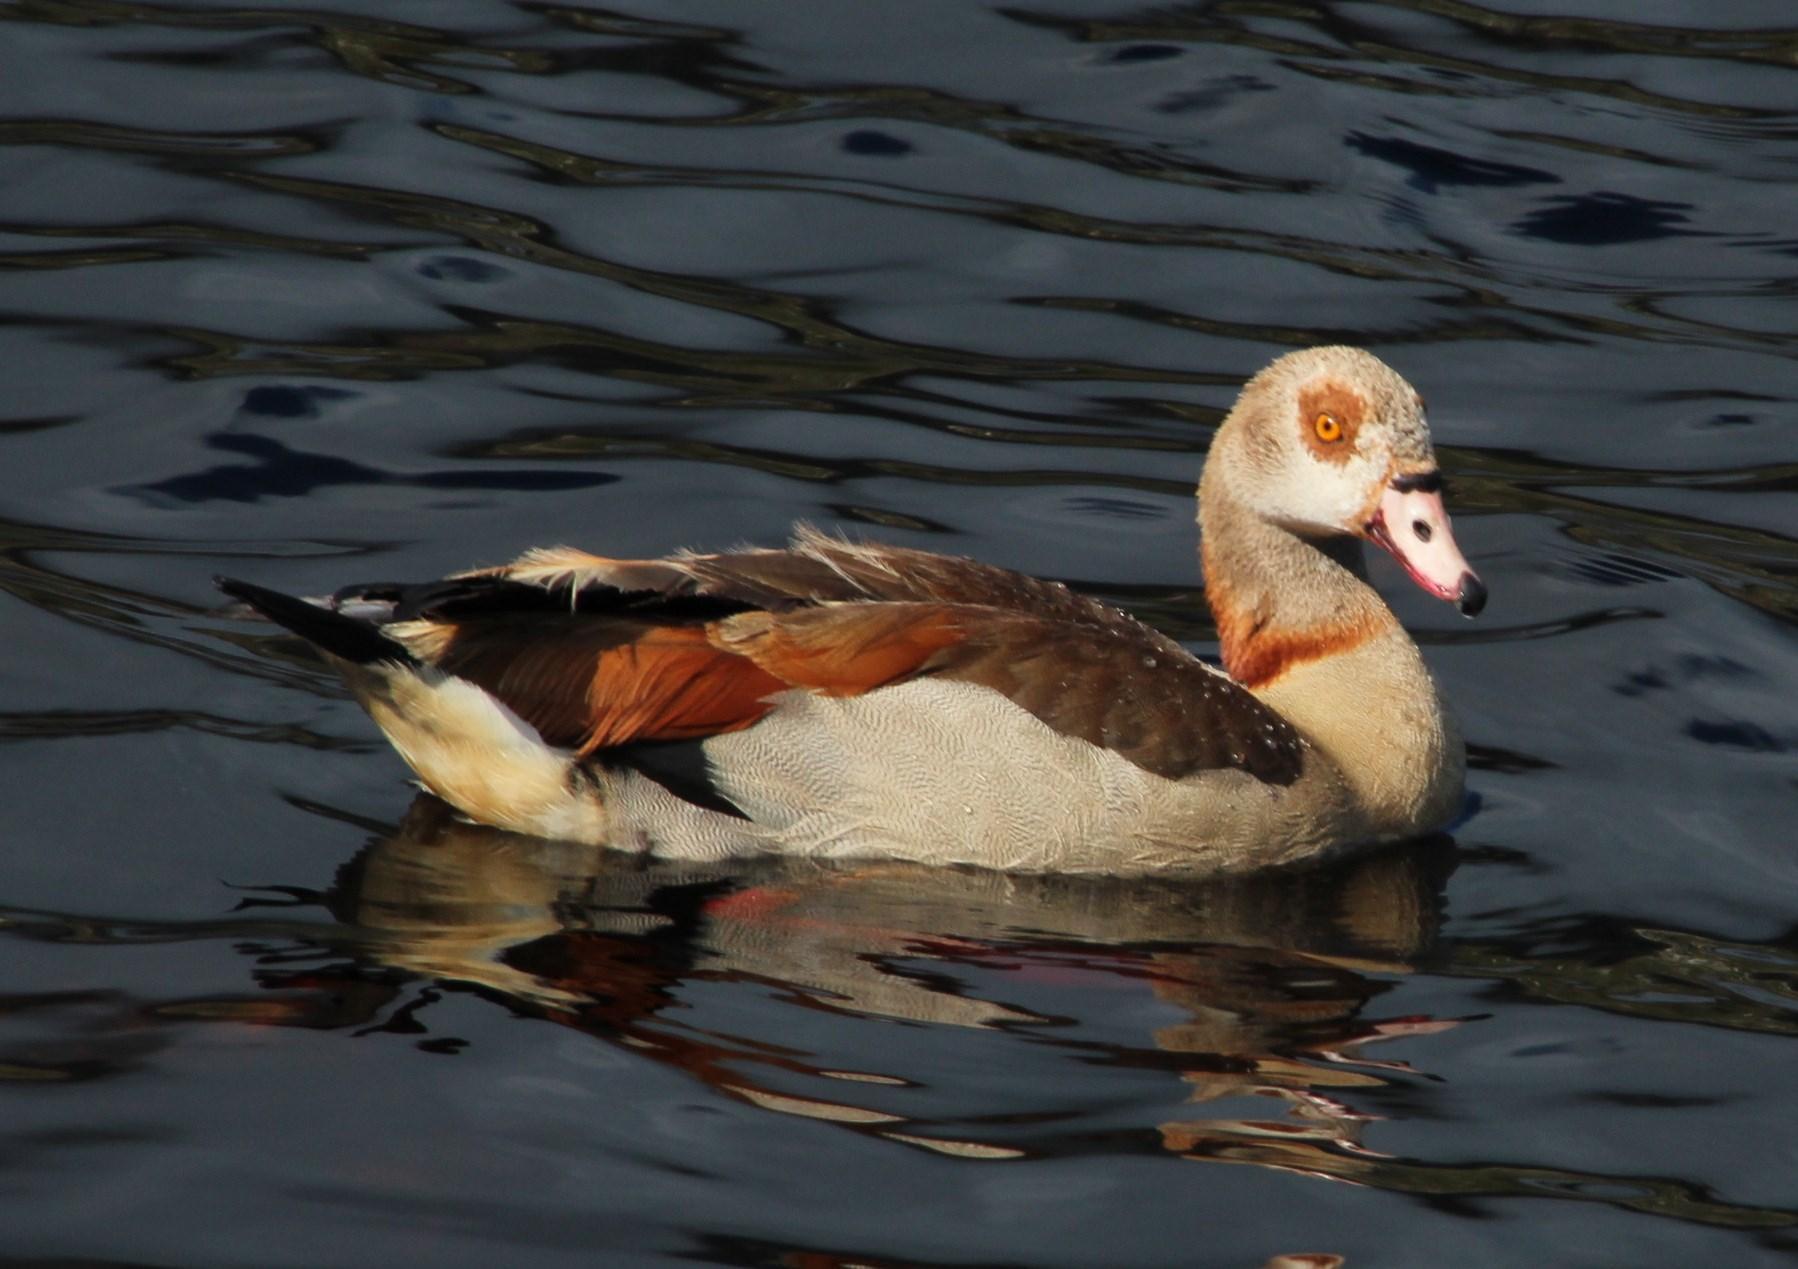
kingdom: Animalia
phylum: Chordata
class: Aves
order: Anseriformes
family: Anatidae
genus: Alopochen
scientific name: Alopochen aegyptiaca
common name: Egyptian goose
